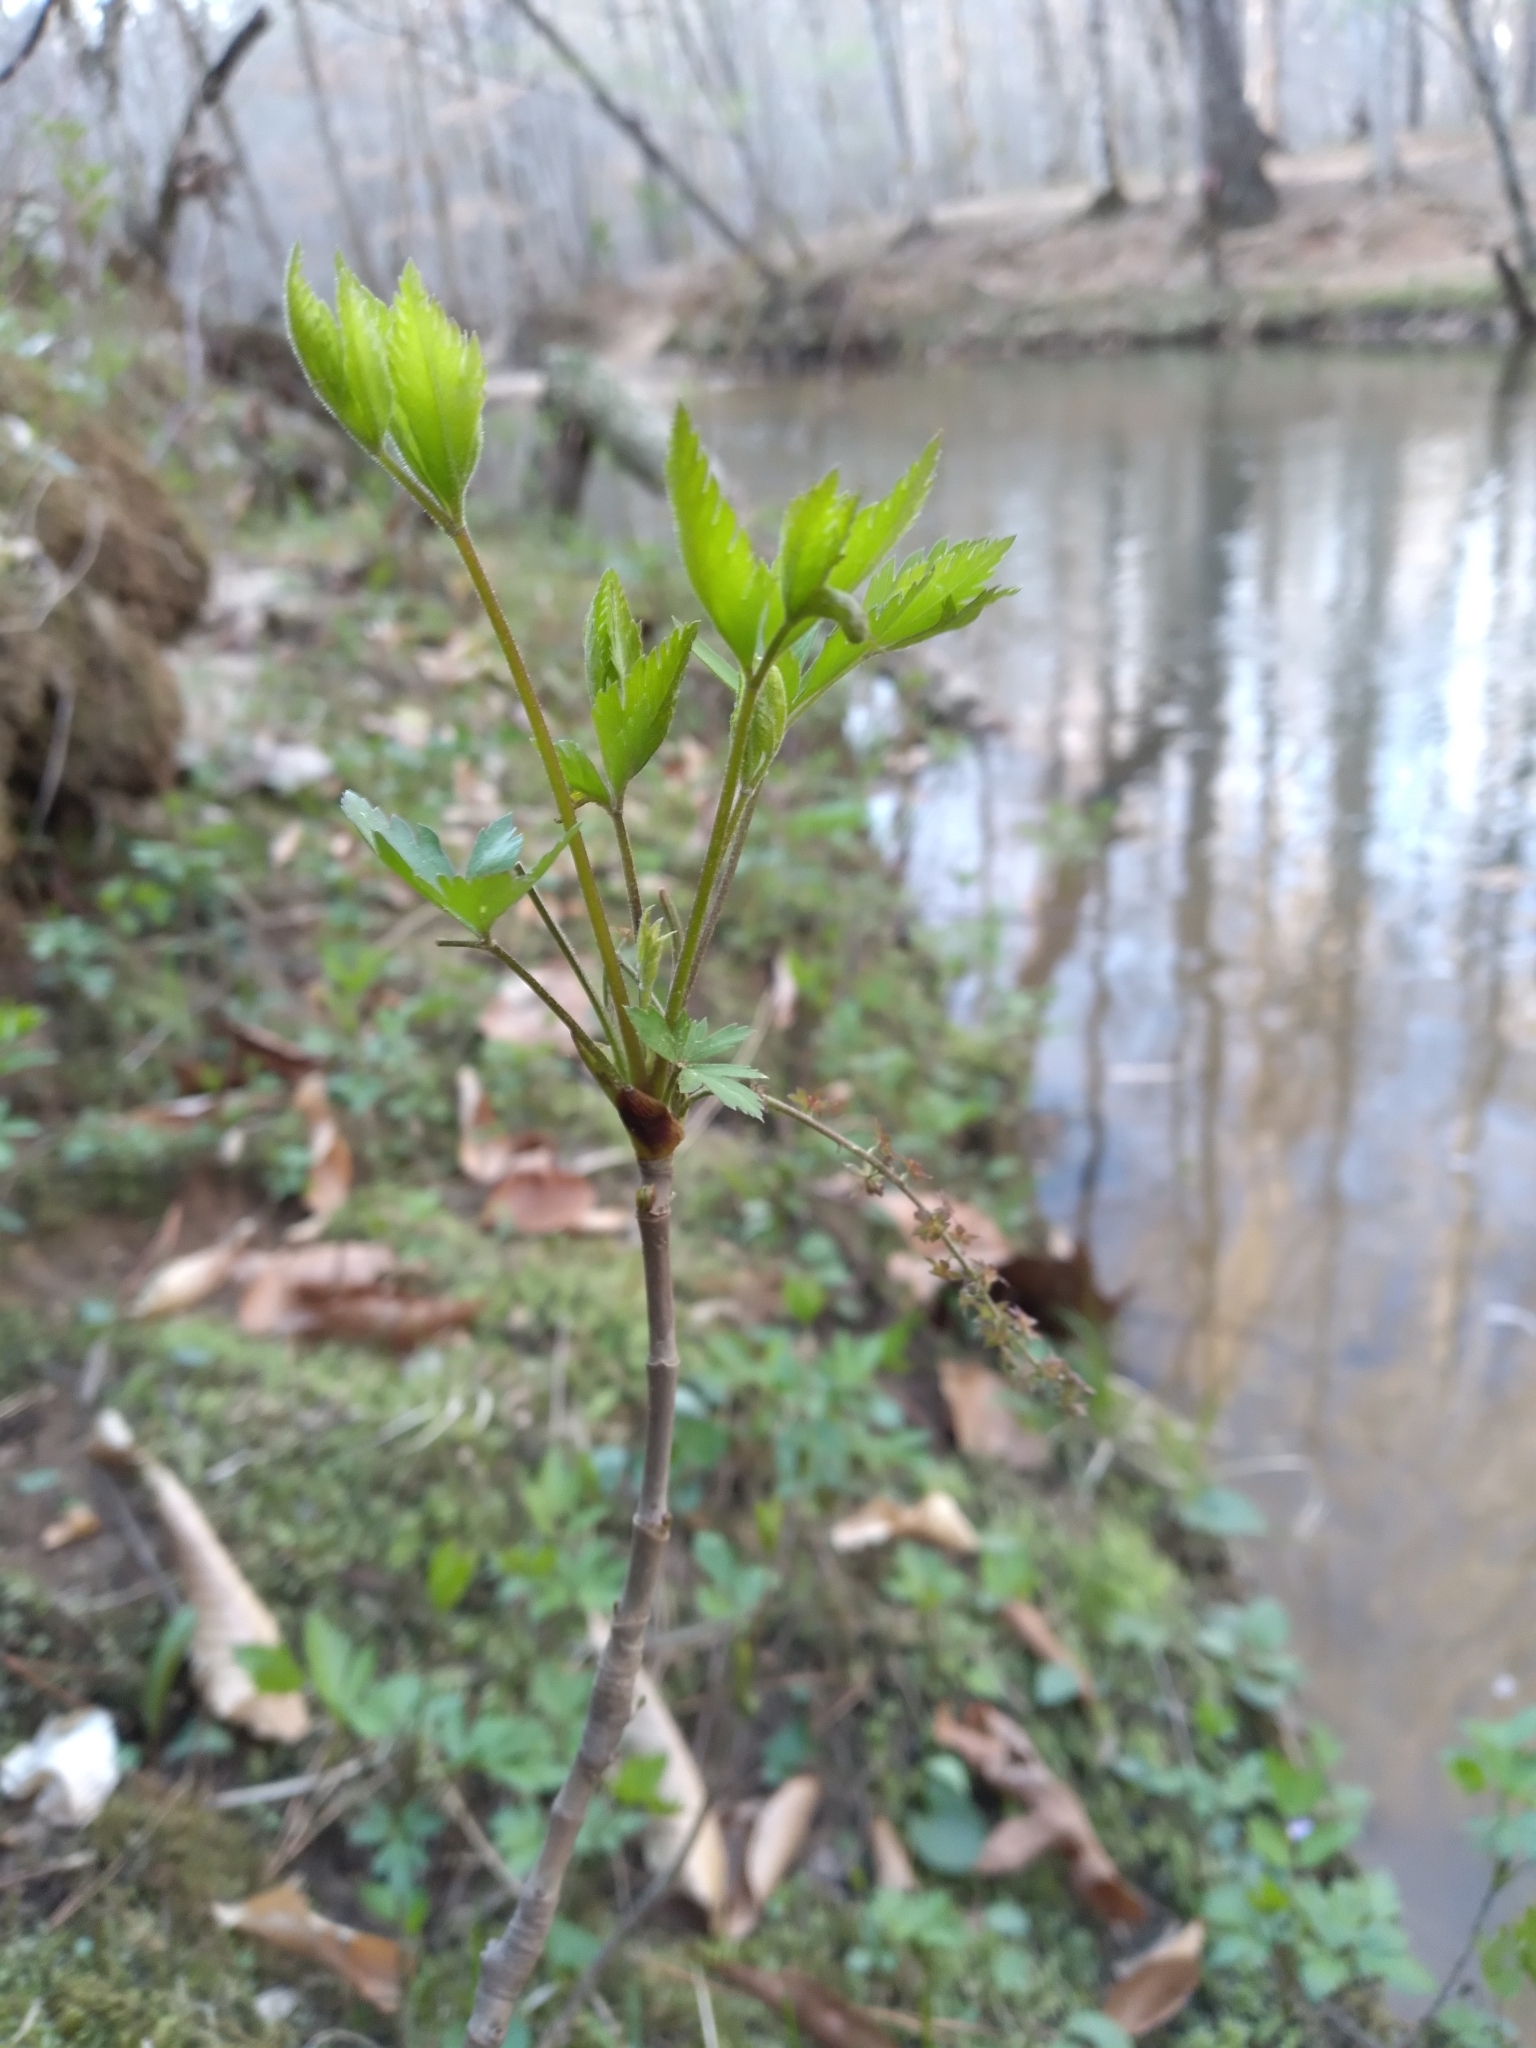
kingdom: Plantae
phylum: Tracheophyta
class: Magnoliopsida
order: Ranunculales
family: Ranunculaceae
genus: Xanthorhiza
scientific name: Xanthorhiza simplicissima
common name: Yellowroot
